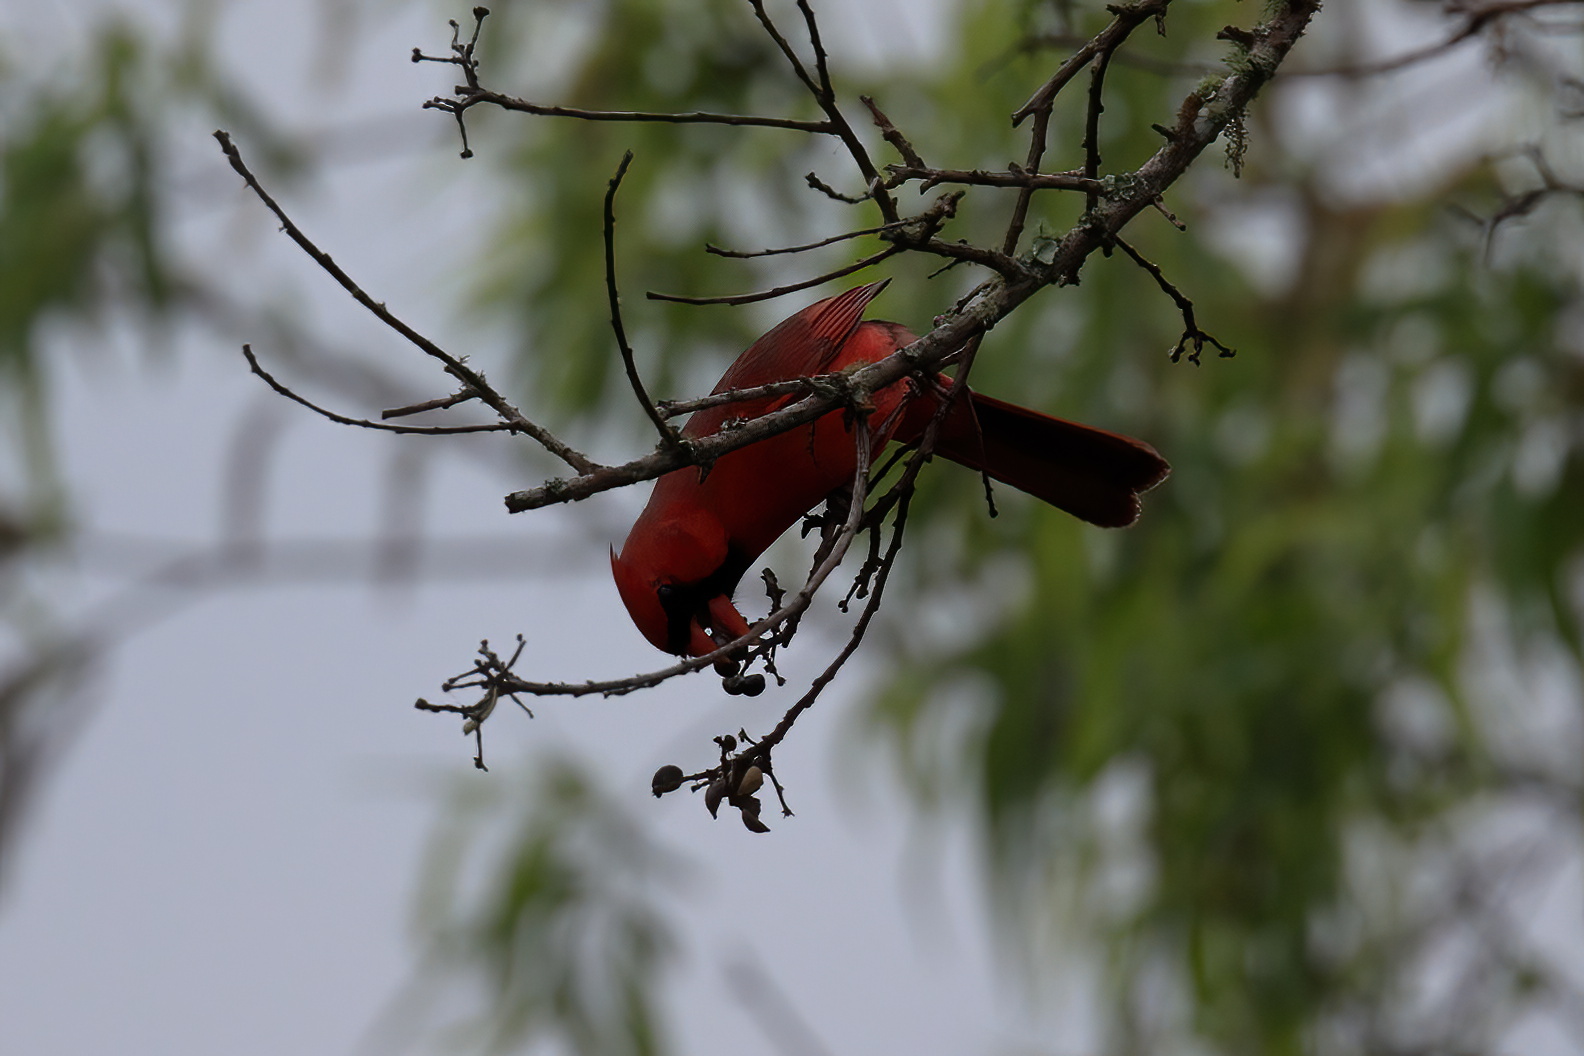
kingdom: Animalia
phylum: Chordata
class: Aves
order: Passeriformes
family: Cardinalidae
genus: Cardinalis
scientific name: Cardinalis cardinalis
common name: Northern cardinal
